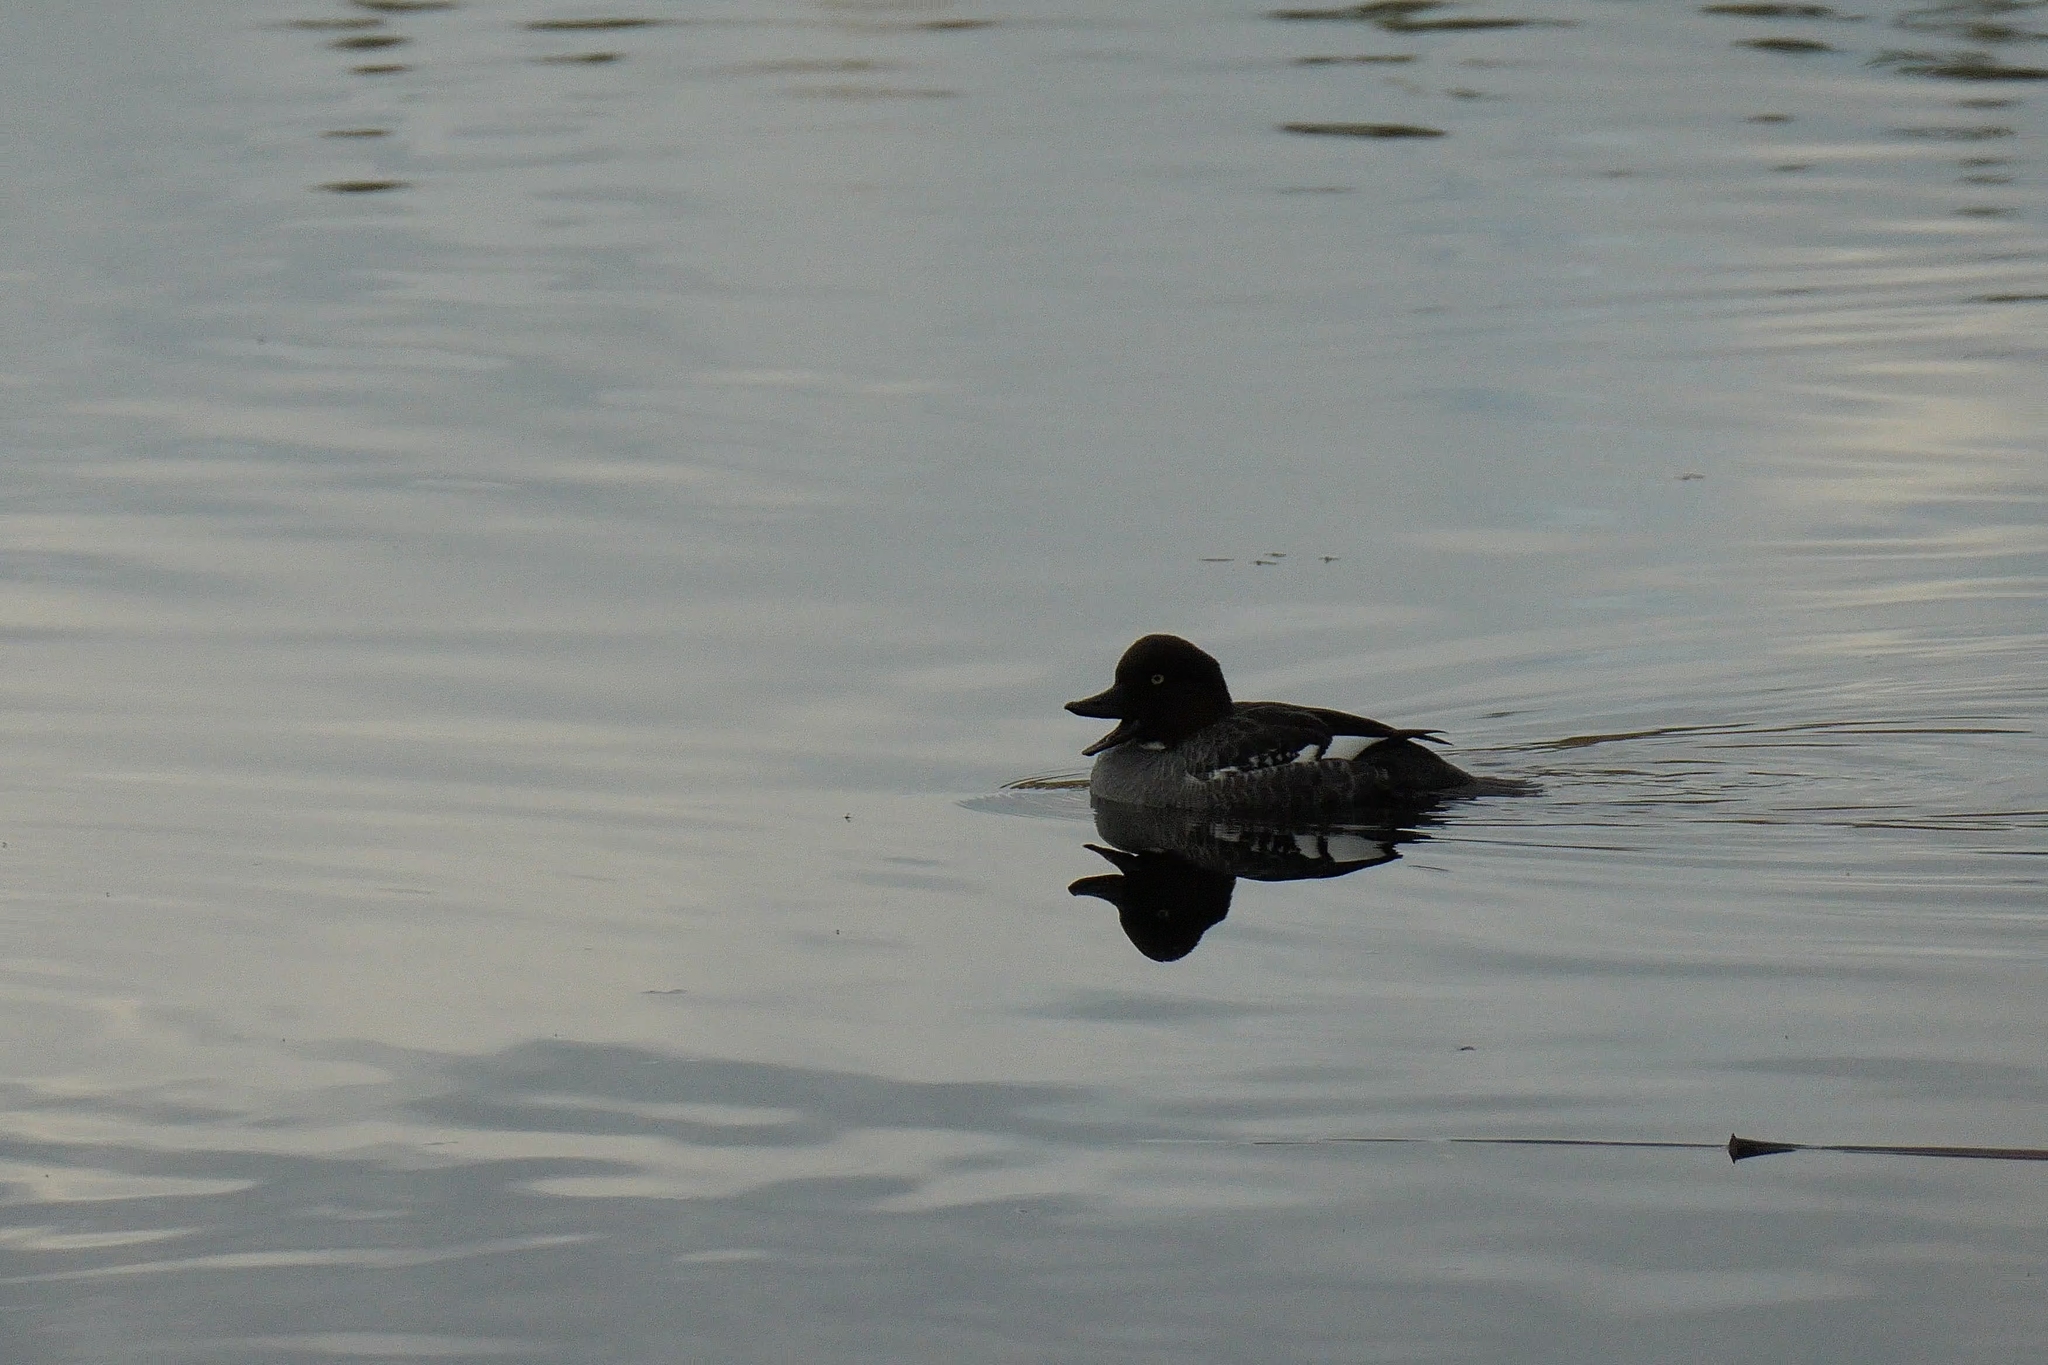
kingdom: Animalia
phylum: Chordata
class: Aves
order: Anseriformes
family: Anatidae
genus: Bucephala
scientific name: Bucephala clangula
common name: Common goldeneye
